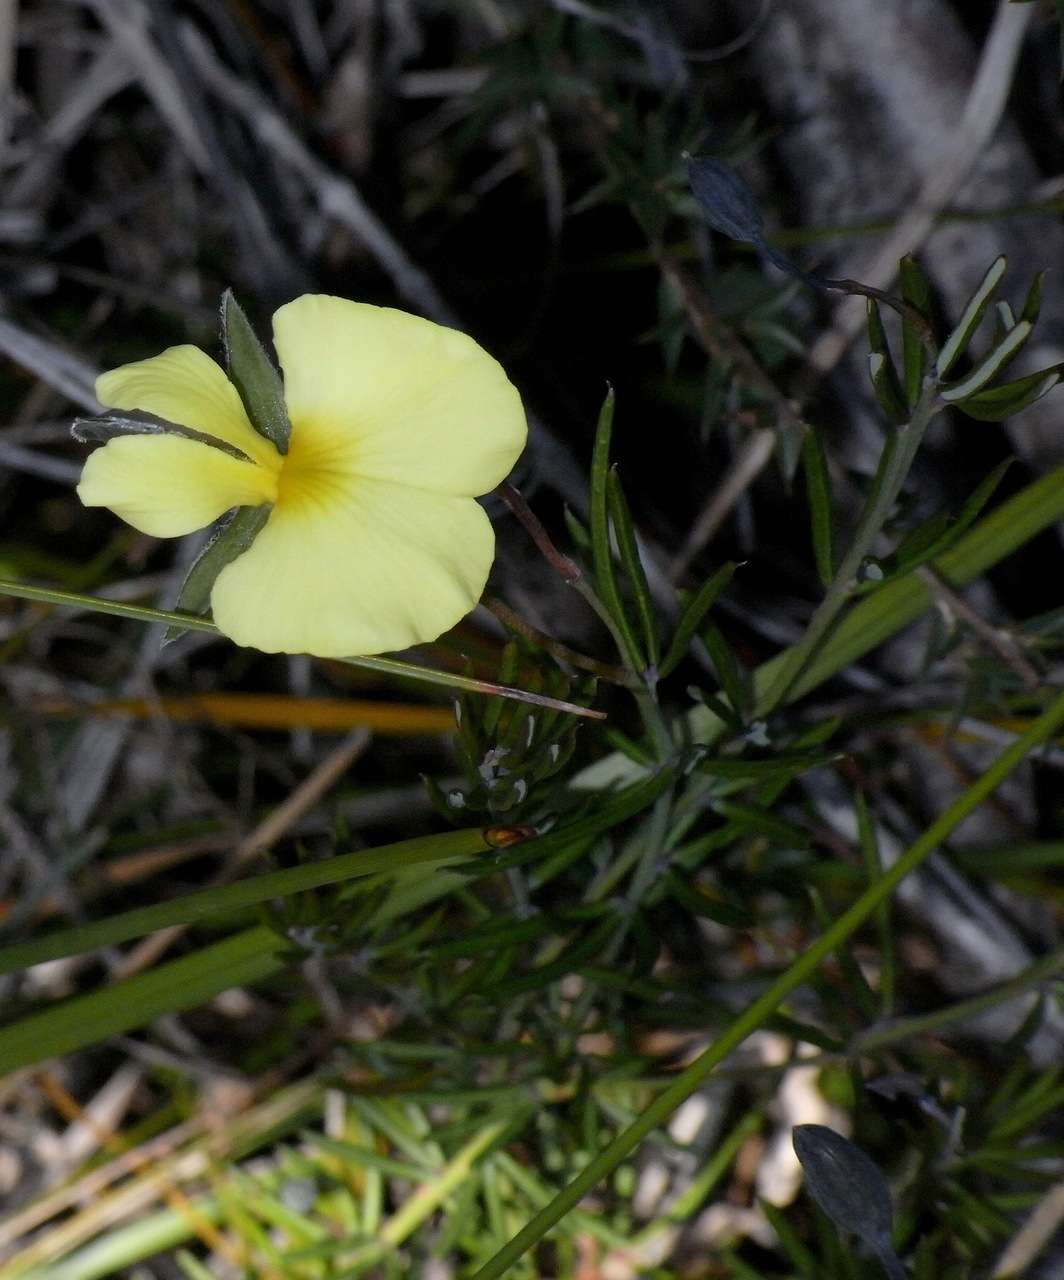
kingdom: Plantae
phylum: Tracheophyta
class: Magnoliopsida
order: Fabales
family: Fabaceae
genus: Gompholobium
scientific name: Gompholobium huegelii
